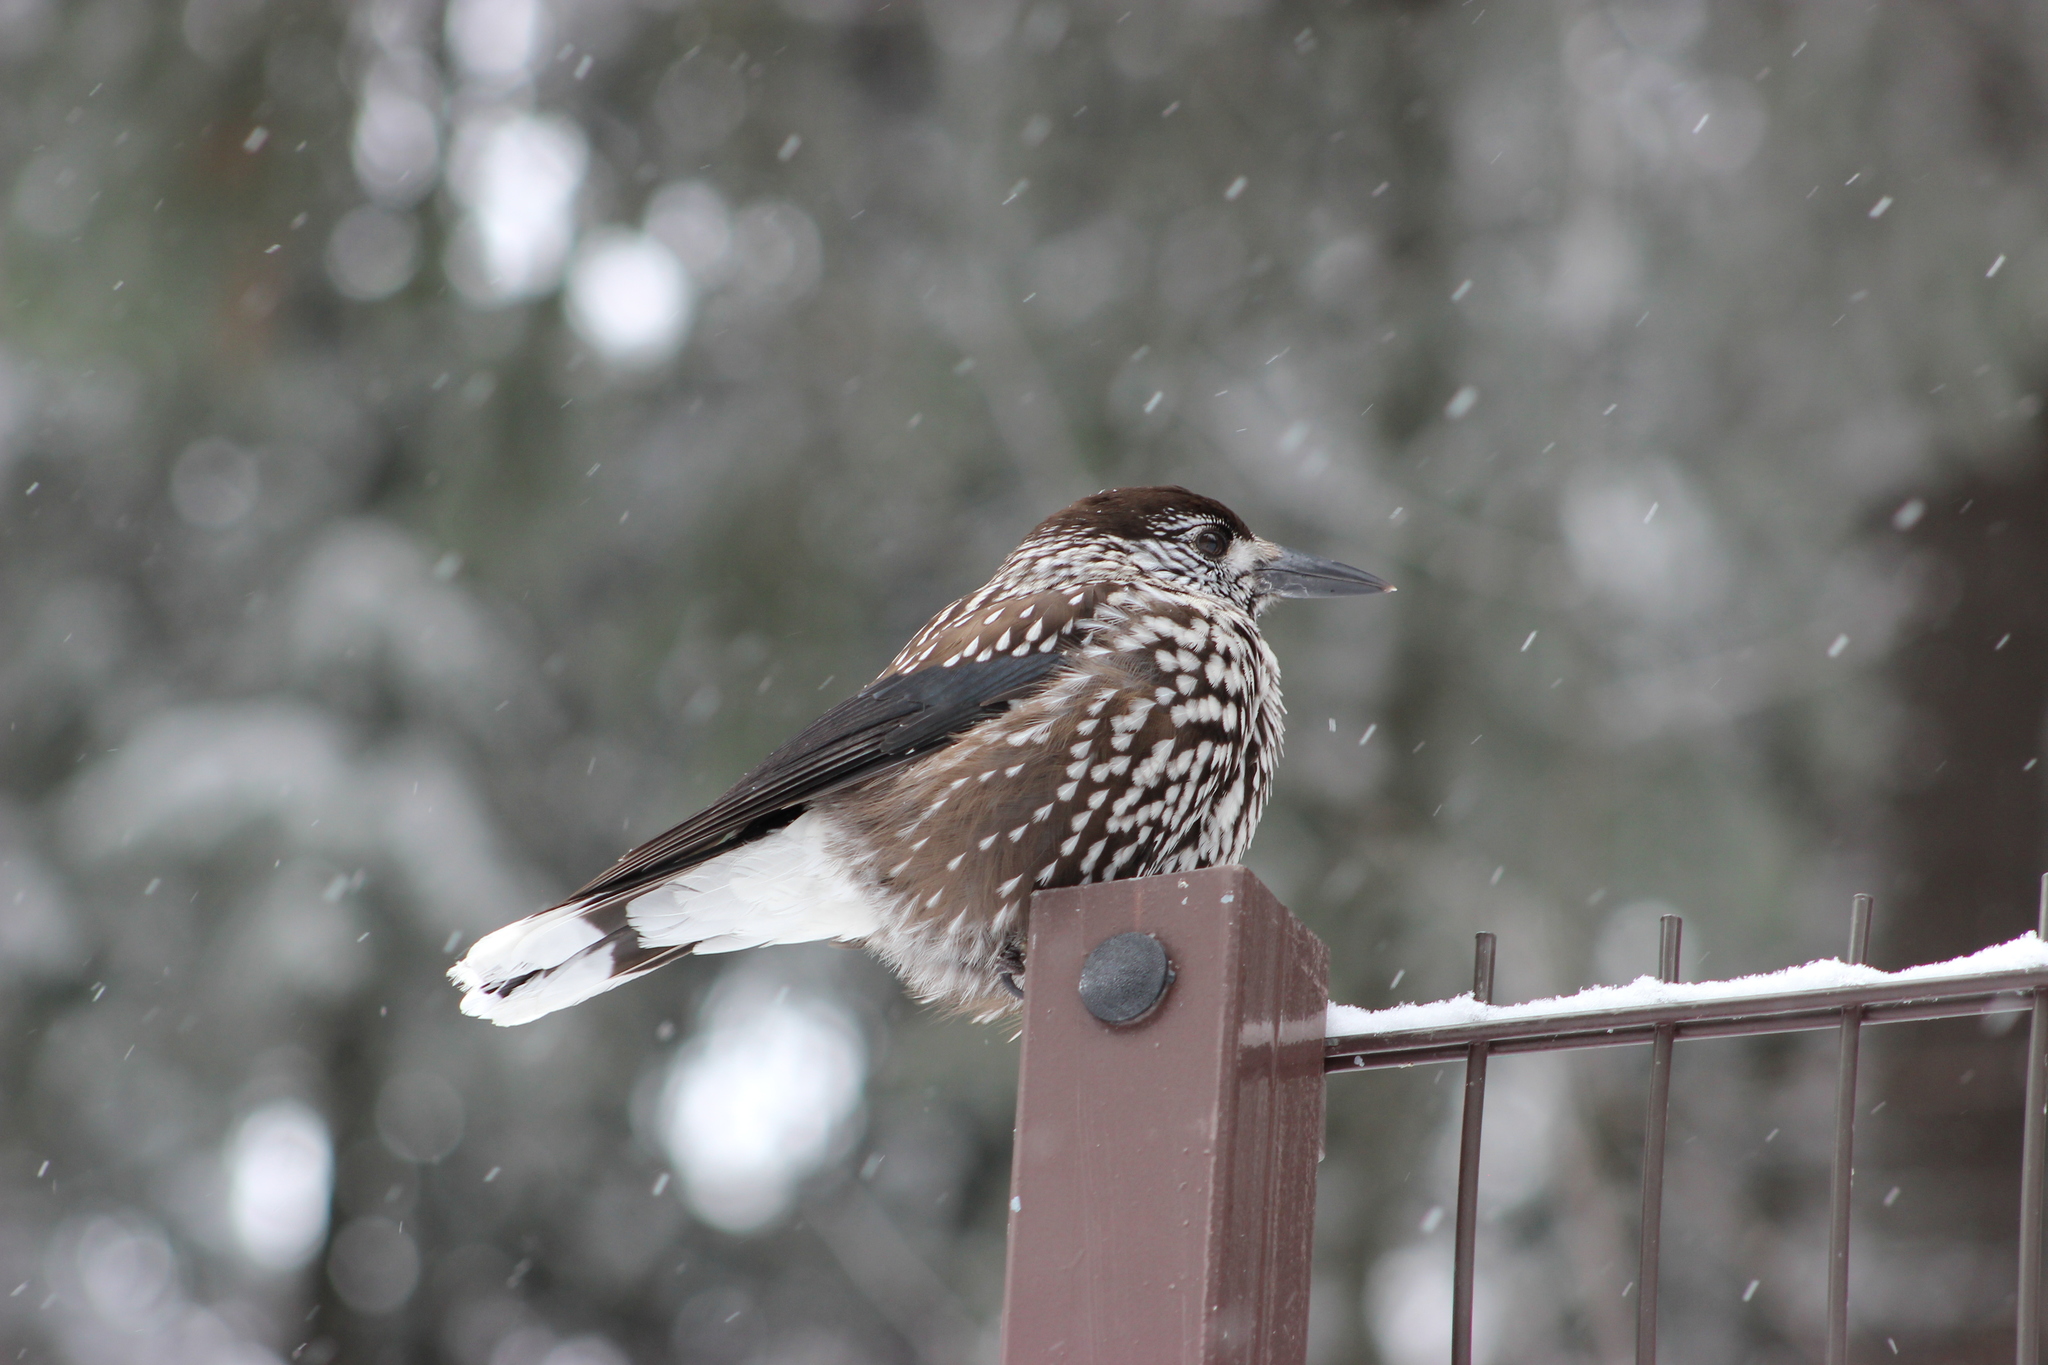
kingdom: Animalia
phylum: Chordata
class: Aves
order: Passeriformes
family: Corvidae
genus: Nucifraga
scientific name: Nucifraga caryocatactes
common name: Spotted nutcracker
